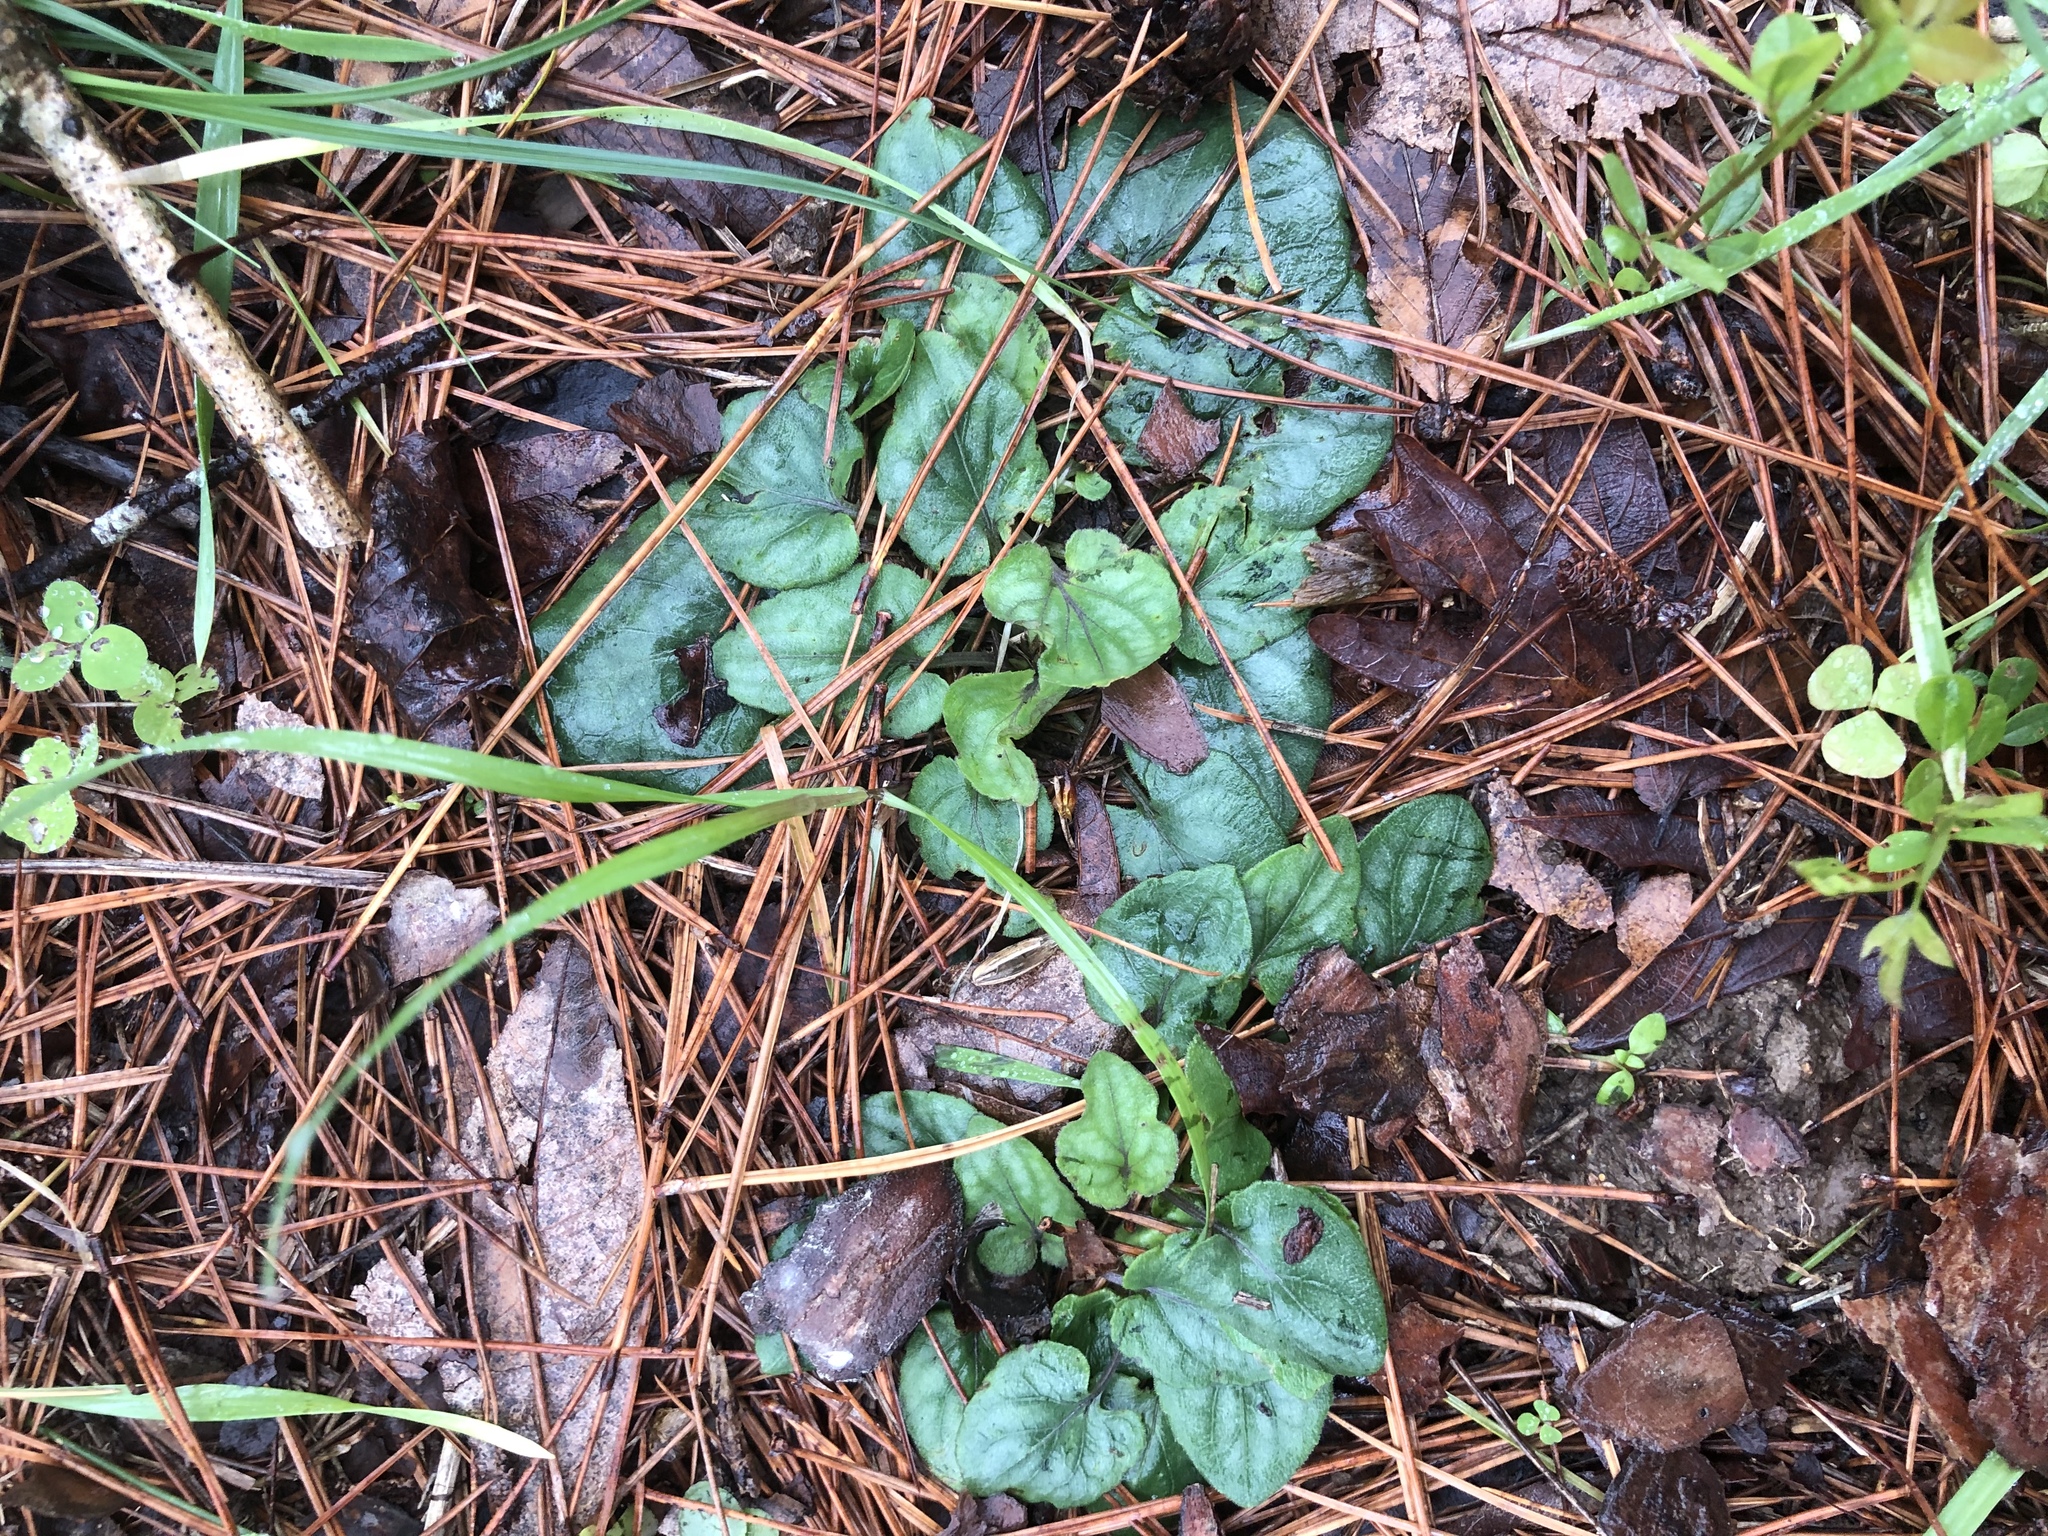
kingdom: Plantae
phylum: Tracheophyta
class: Magnoliopsida
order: Malpighiales
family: Violaceae
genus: Viola
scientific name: Viola villosa
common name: Carolina violet
